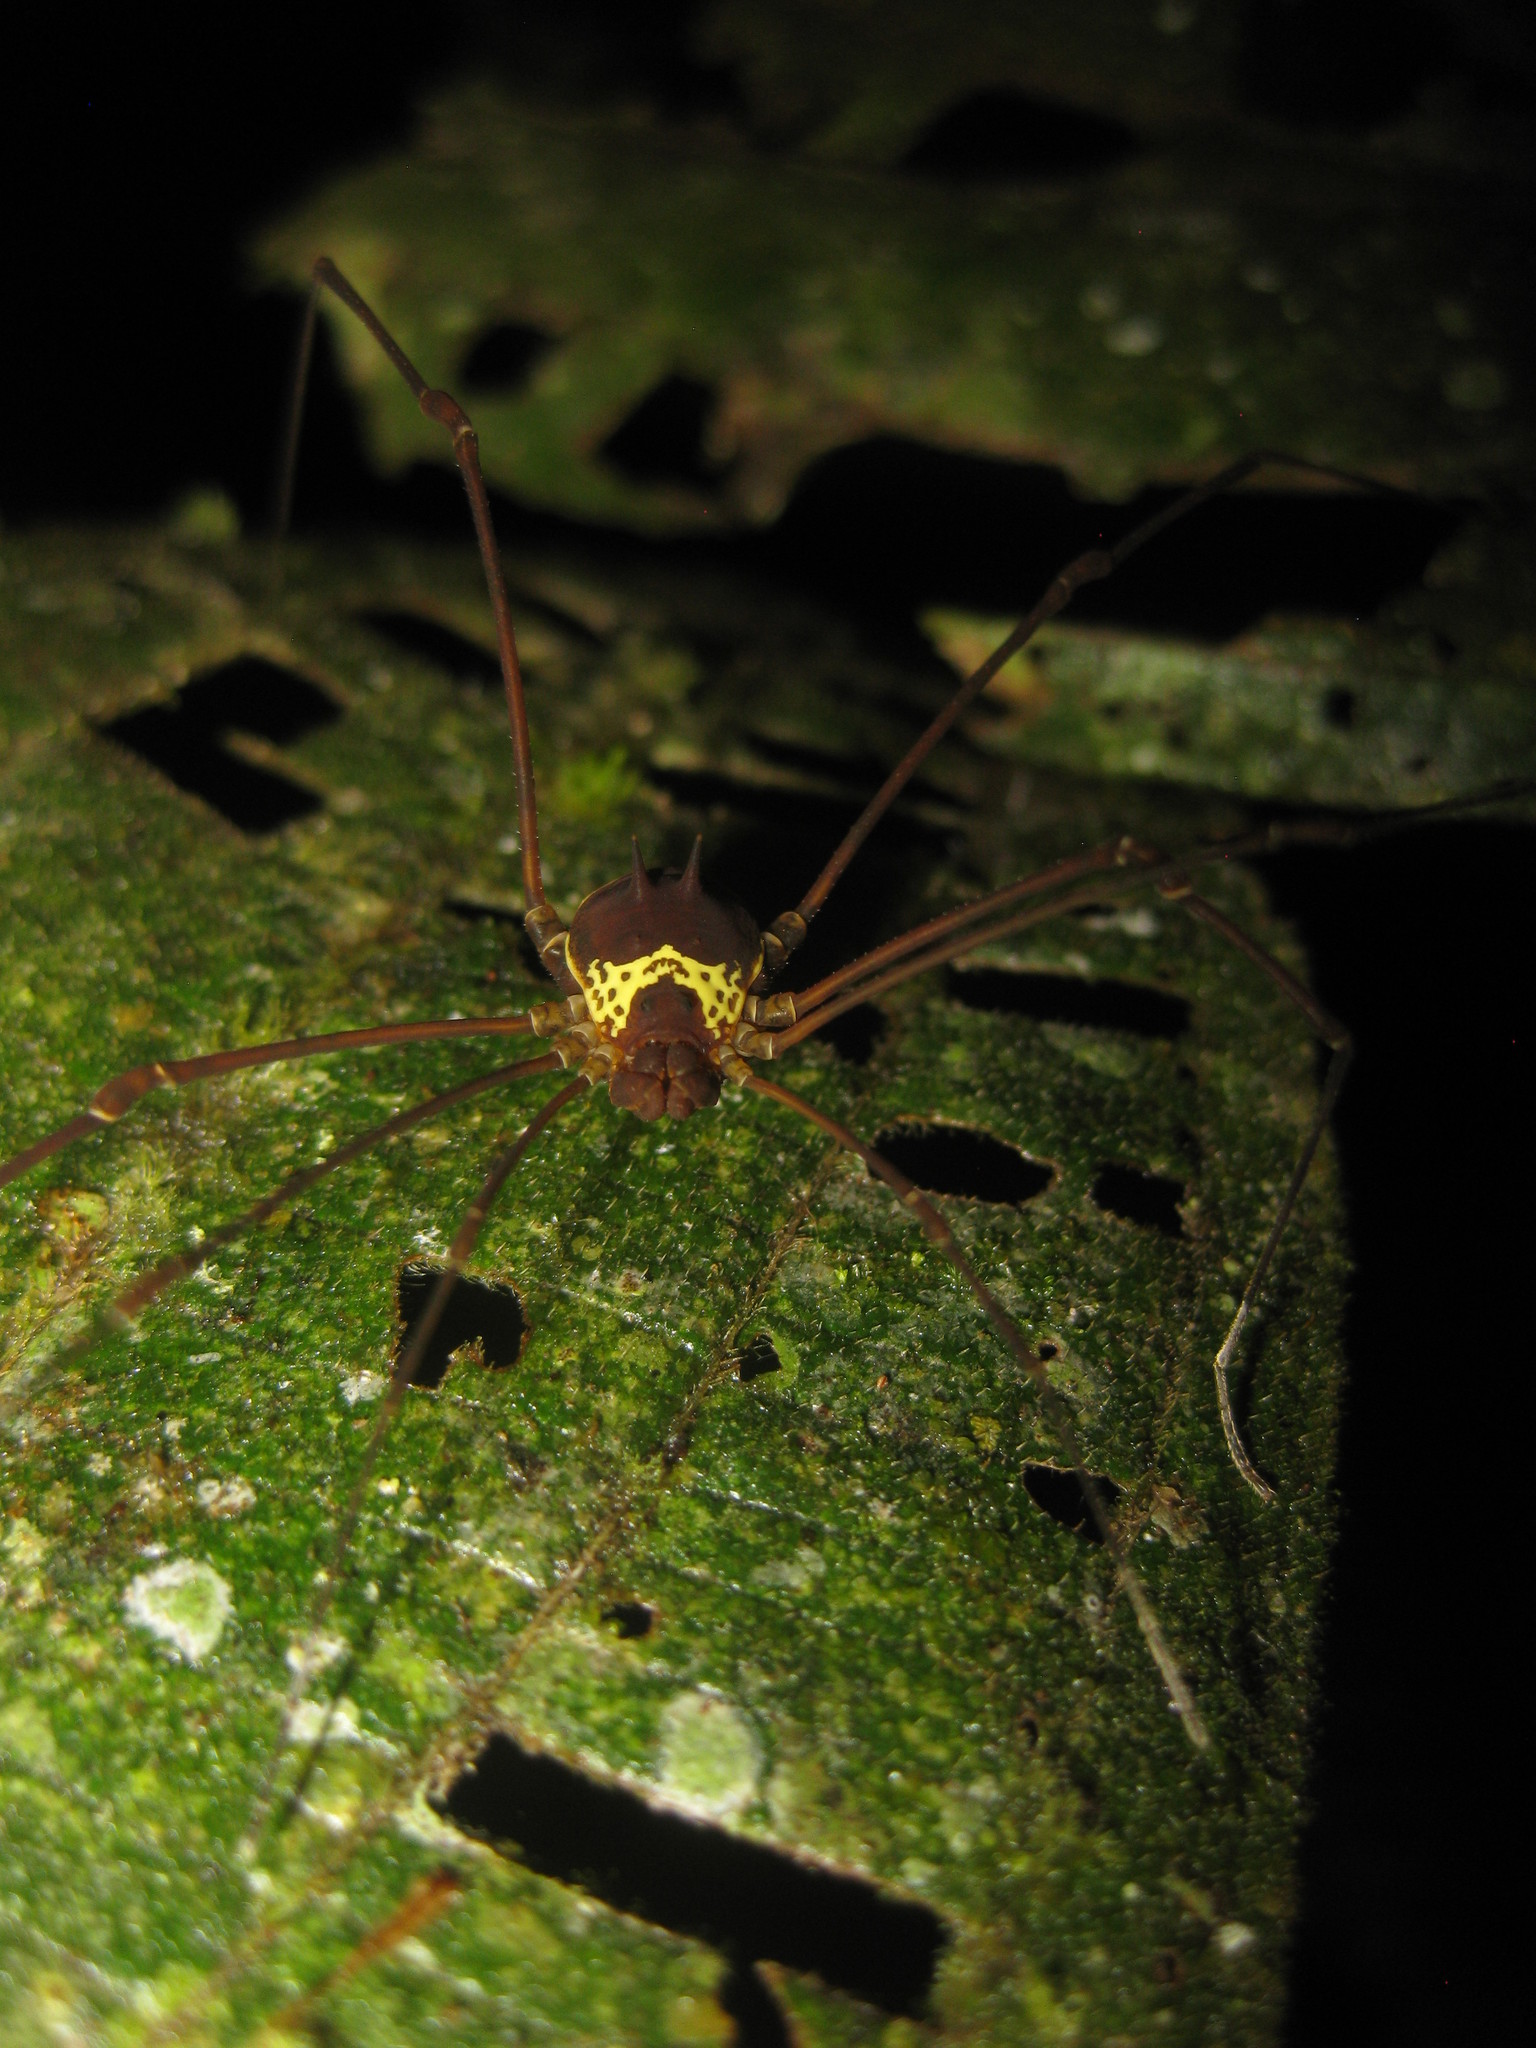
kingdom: Animalia
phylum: Arthropoda
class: Arachnida
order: Opiliones
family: Cosmetidae
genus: Meterginus
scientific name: Meterginus serratus
